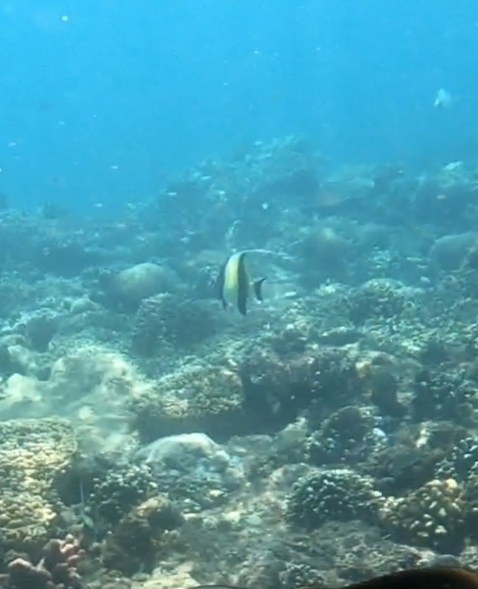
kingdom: Animalia
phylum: Chordata
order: Perciformes
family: Zanclidae
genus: Zanclus
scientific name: Zanclus cornutus
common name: Moorish idol
